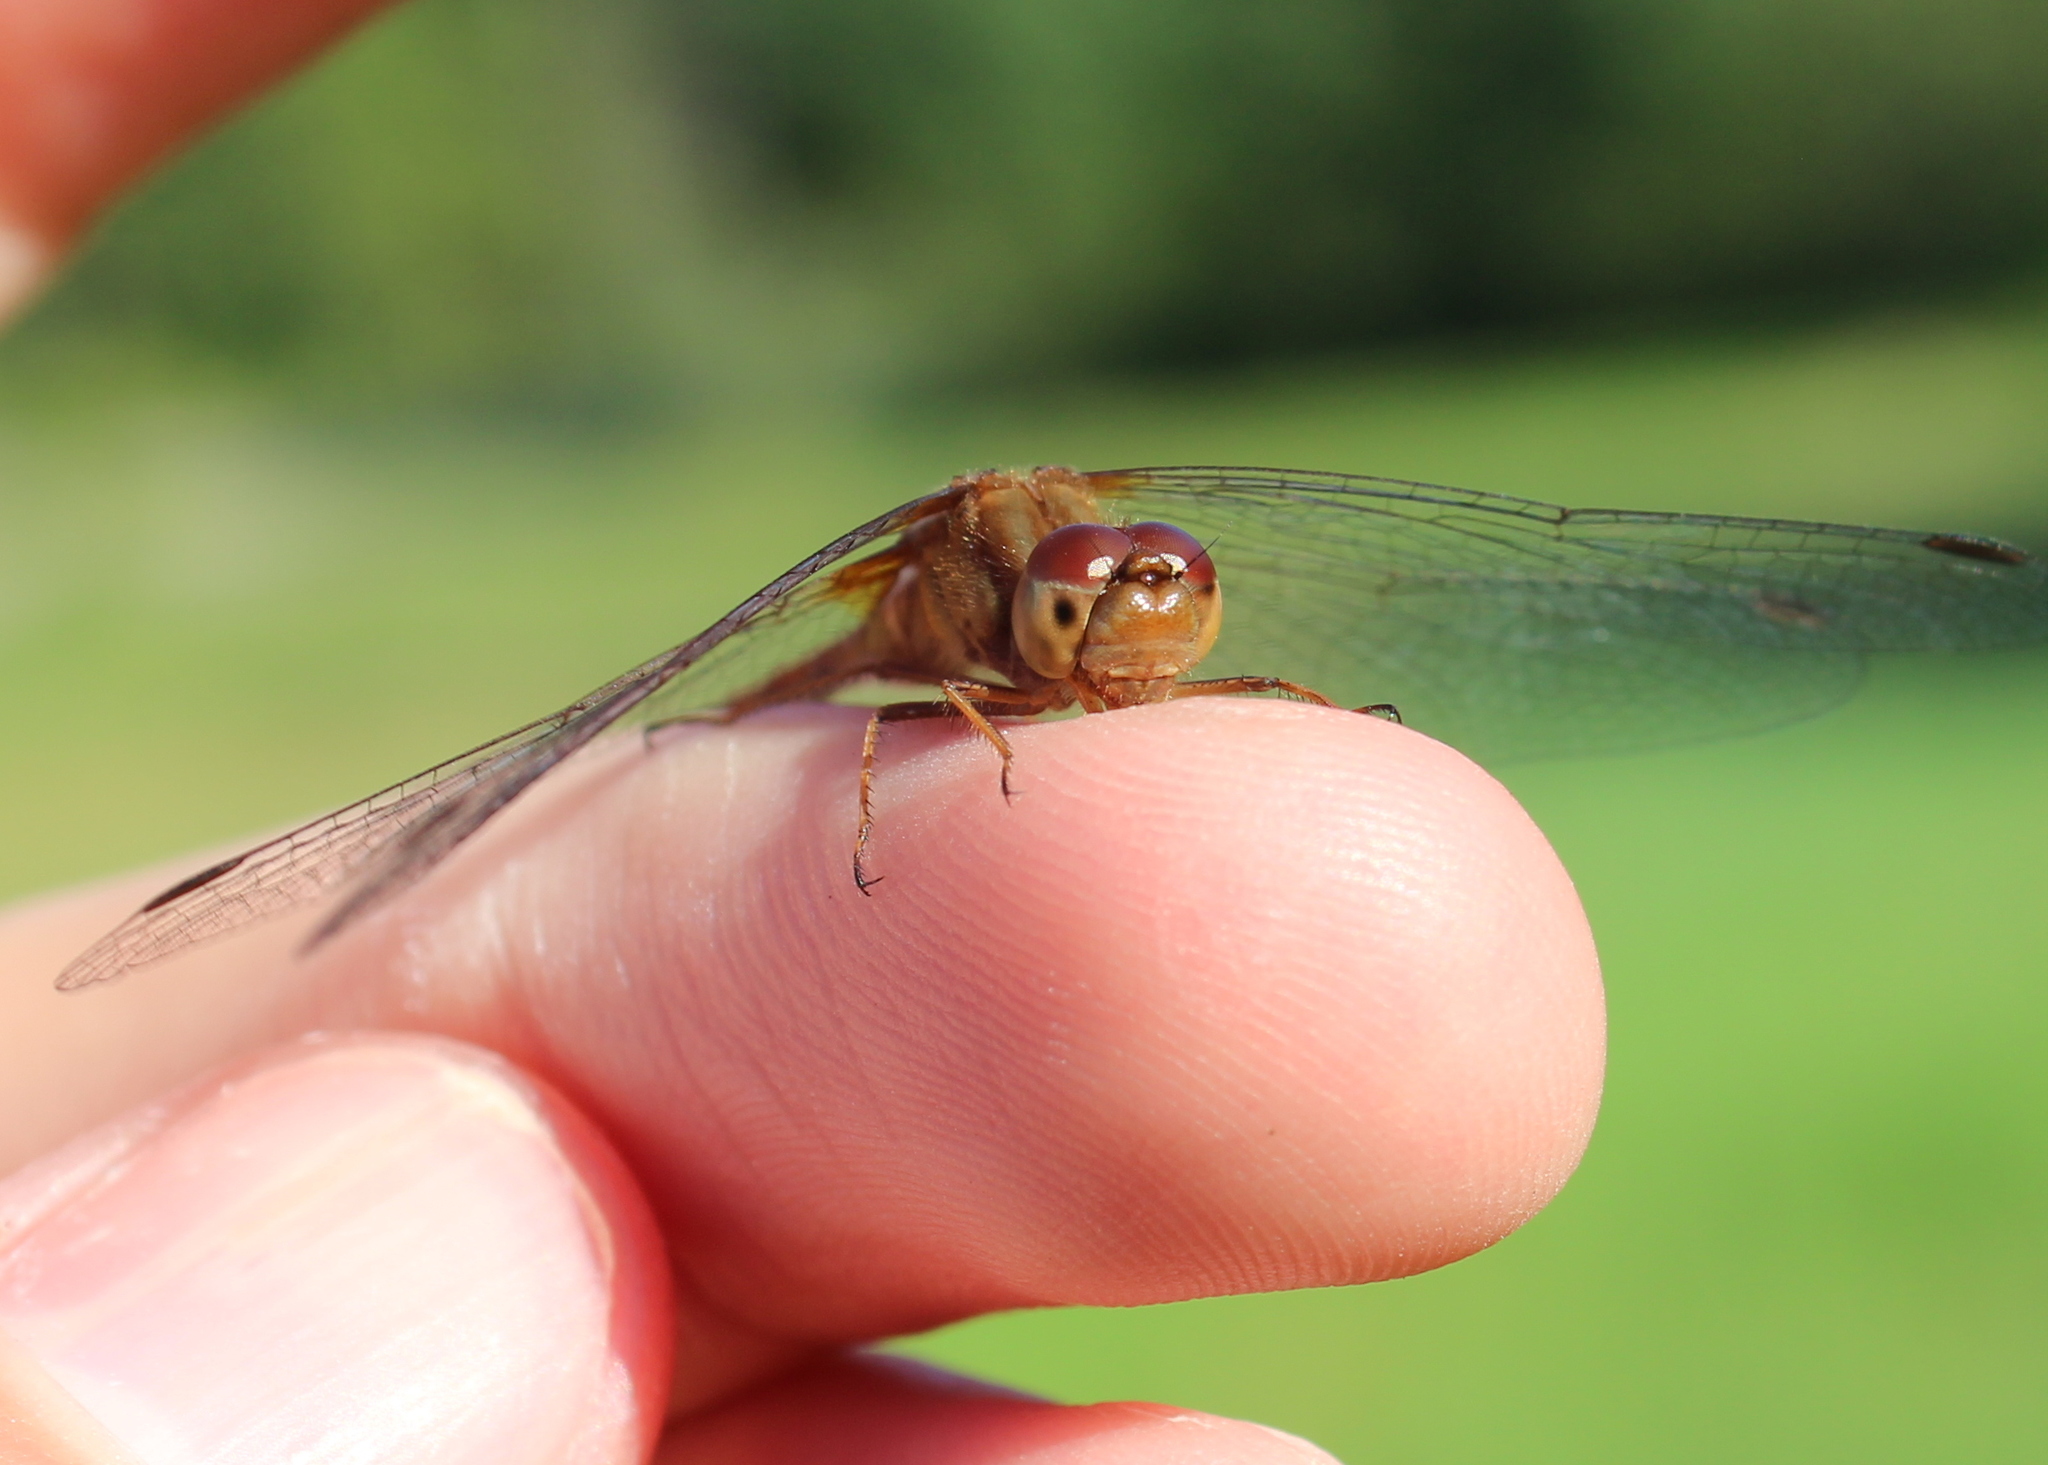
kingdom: Animalia
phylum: Arthropoda
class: Insecta
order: Odonata
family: Libellulidae
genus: Sympetrum
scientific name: Sympetrum vicinum
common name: Autumn meadowhawk
